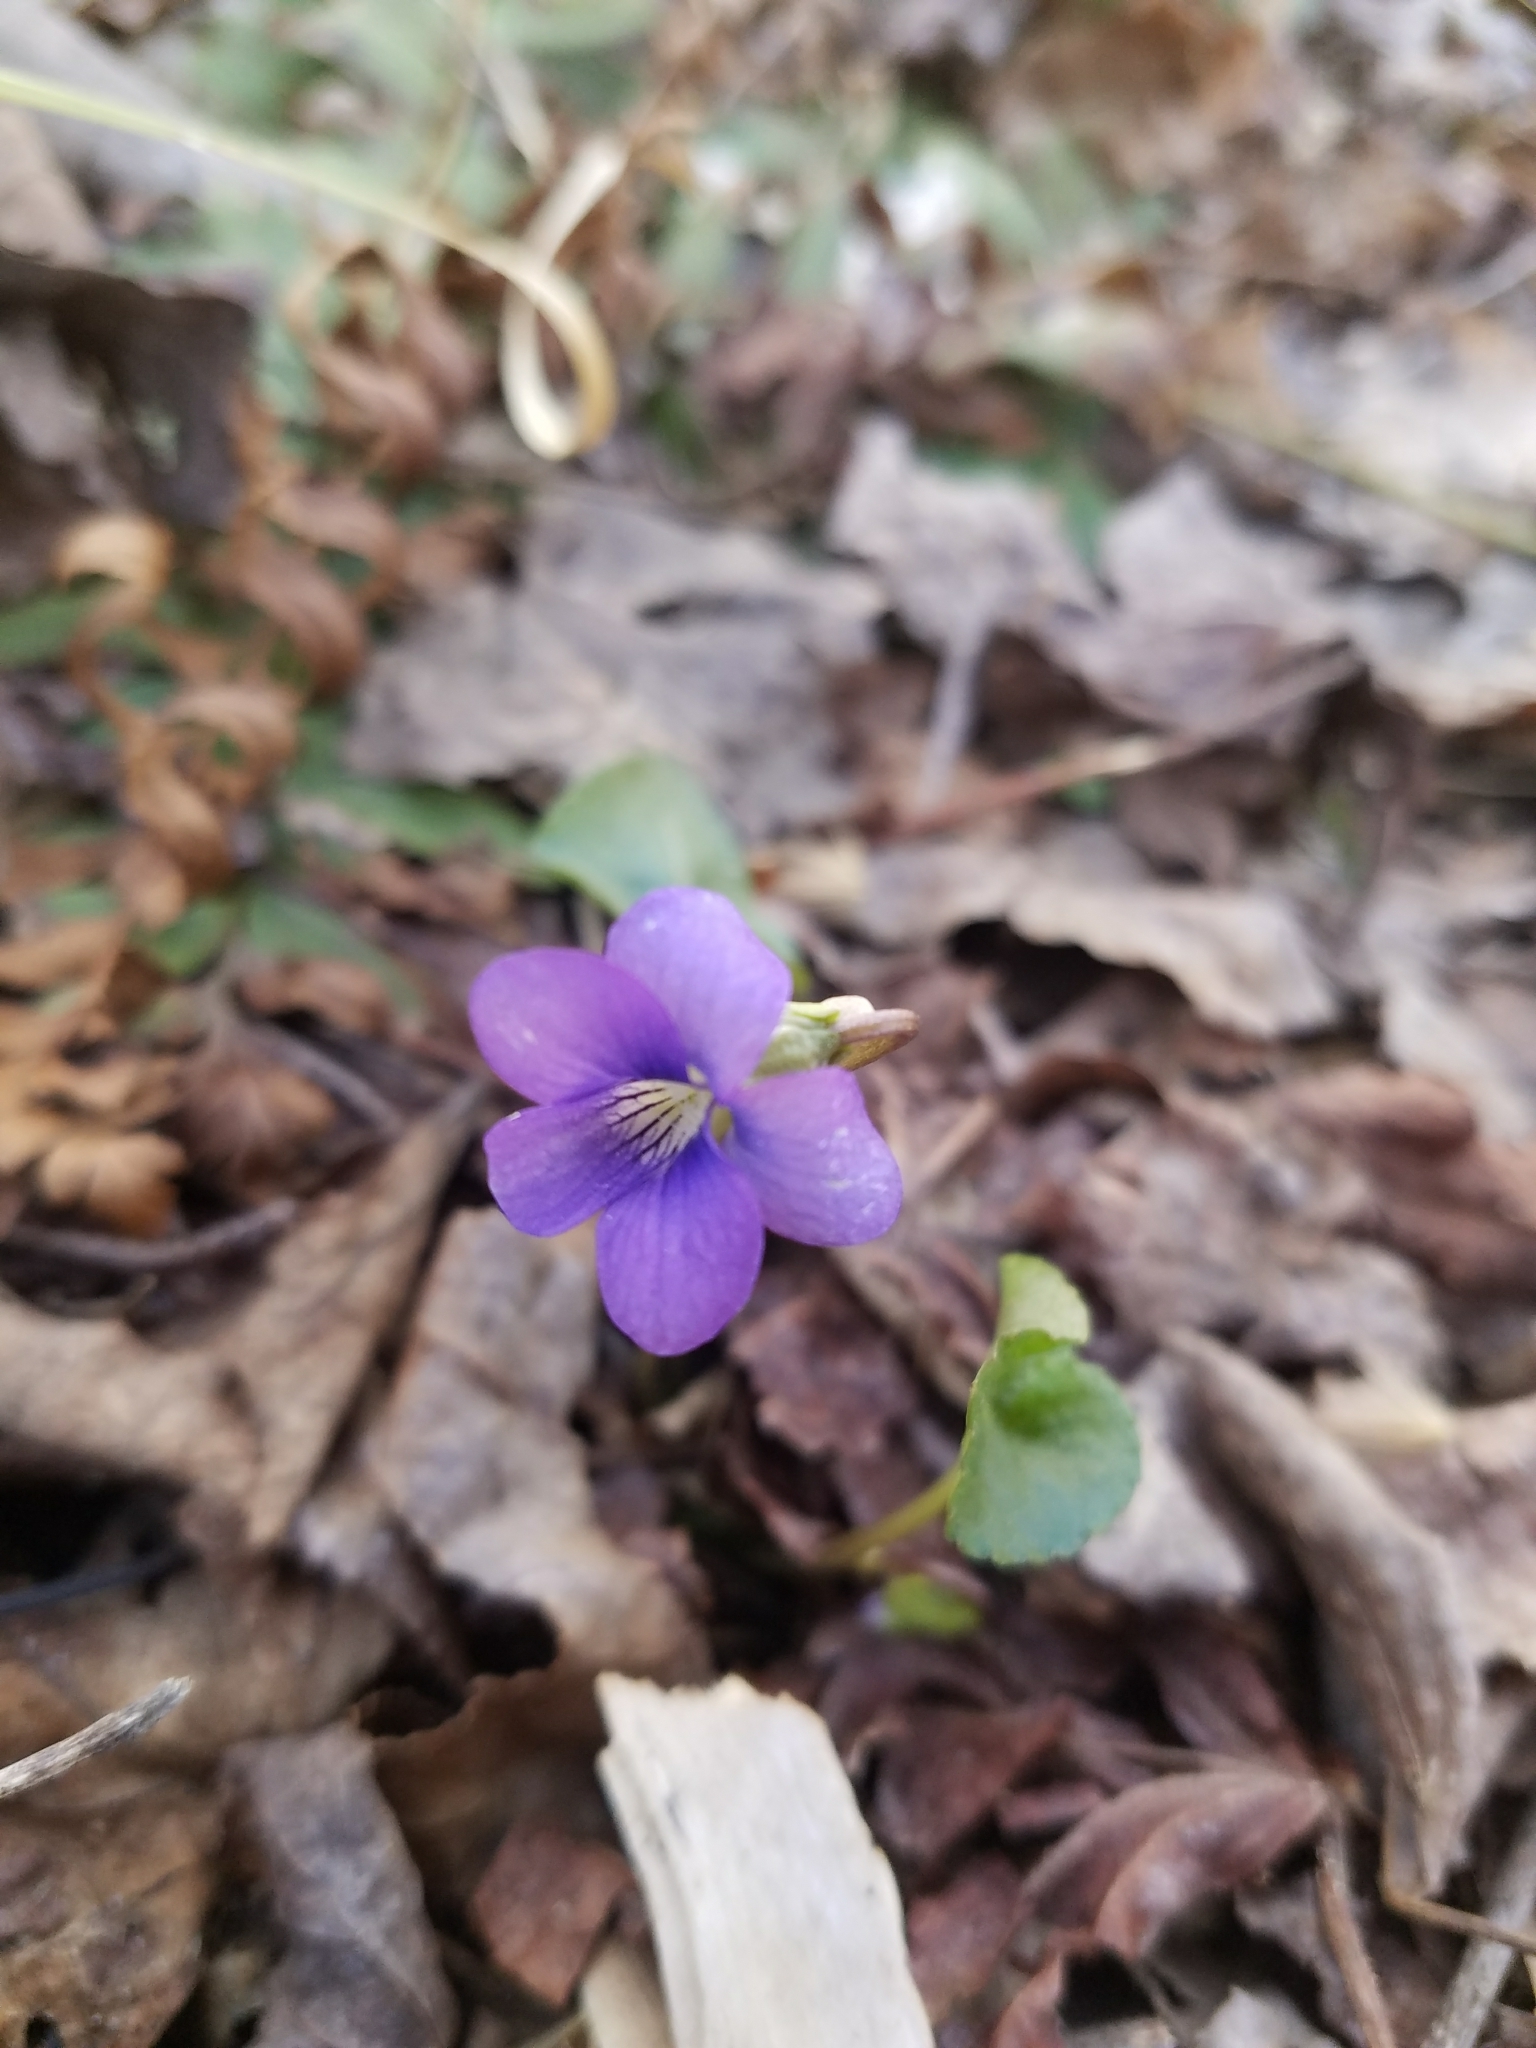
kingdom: Plantae
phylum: Tracheophyta
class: Magnoliopsida
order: Malpighiales
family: Violaceae
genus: Viola
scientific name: Viola sororia
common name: Dooryard violet
